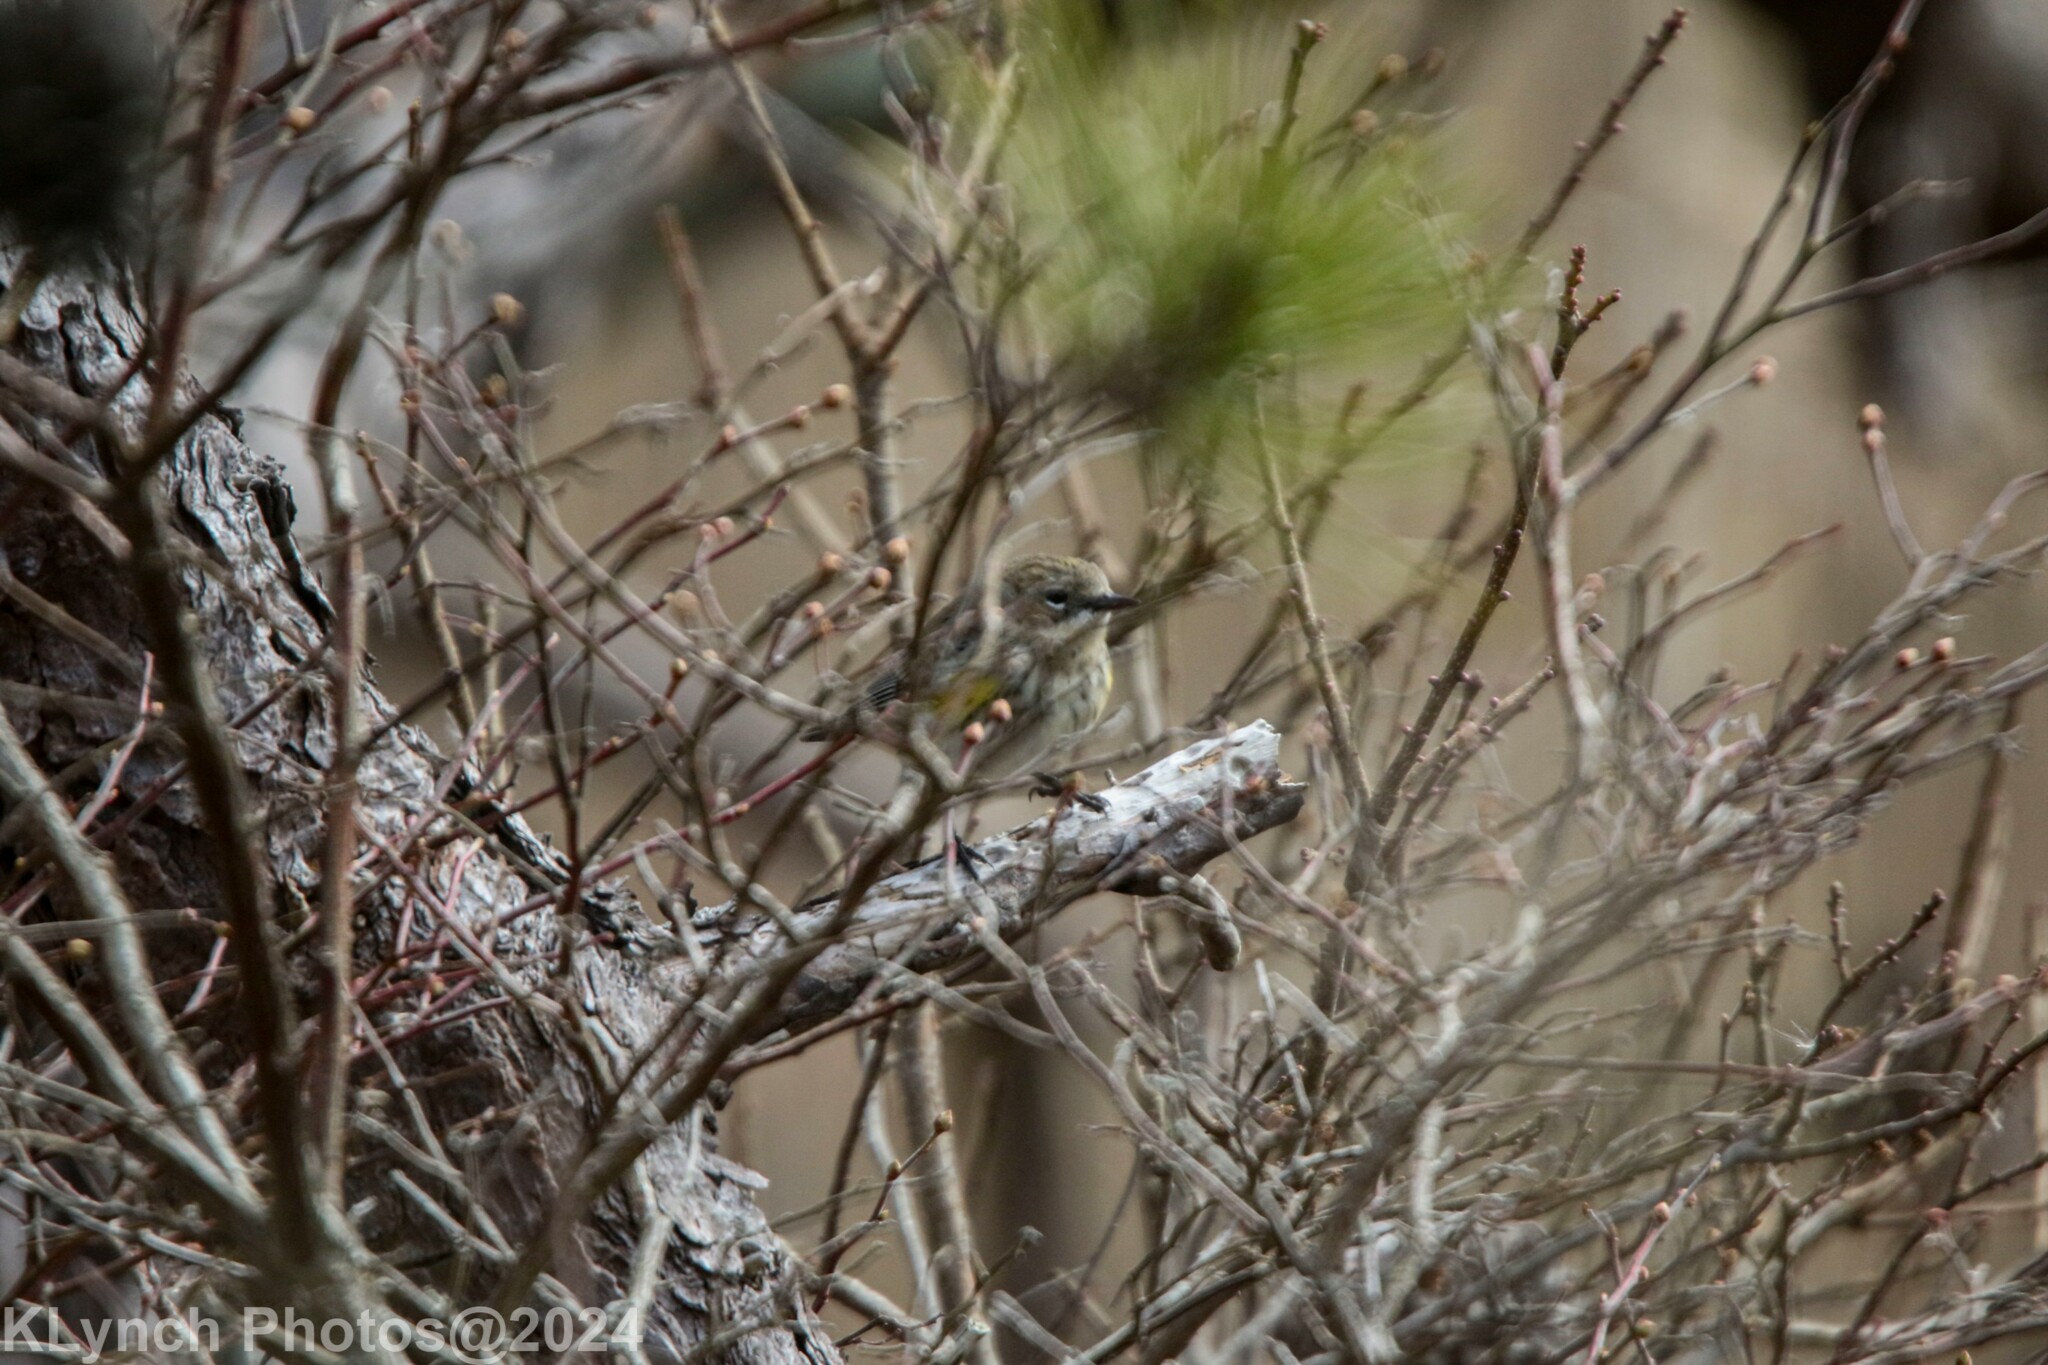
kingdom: Animalia
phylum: Chordata
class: Aves
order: Passeriformes
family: Parulidae
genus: Setophaga
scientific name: Setophaga coronata
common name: Myrtle warbler
